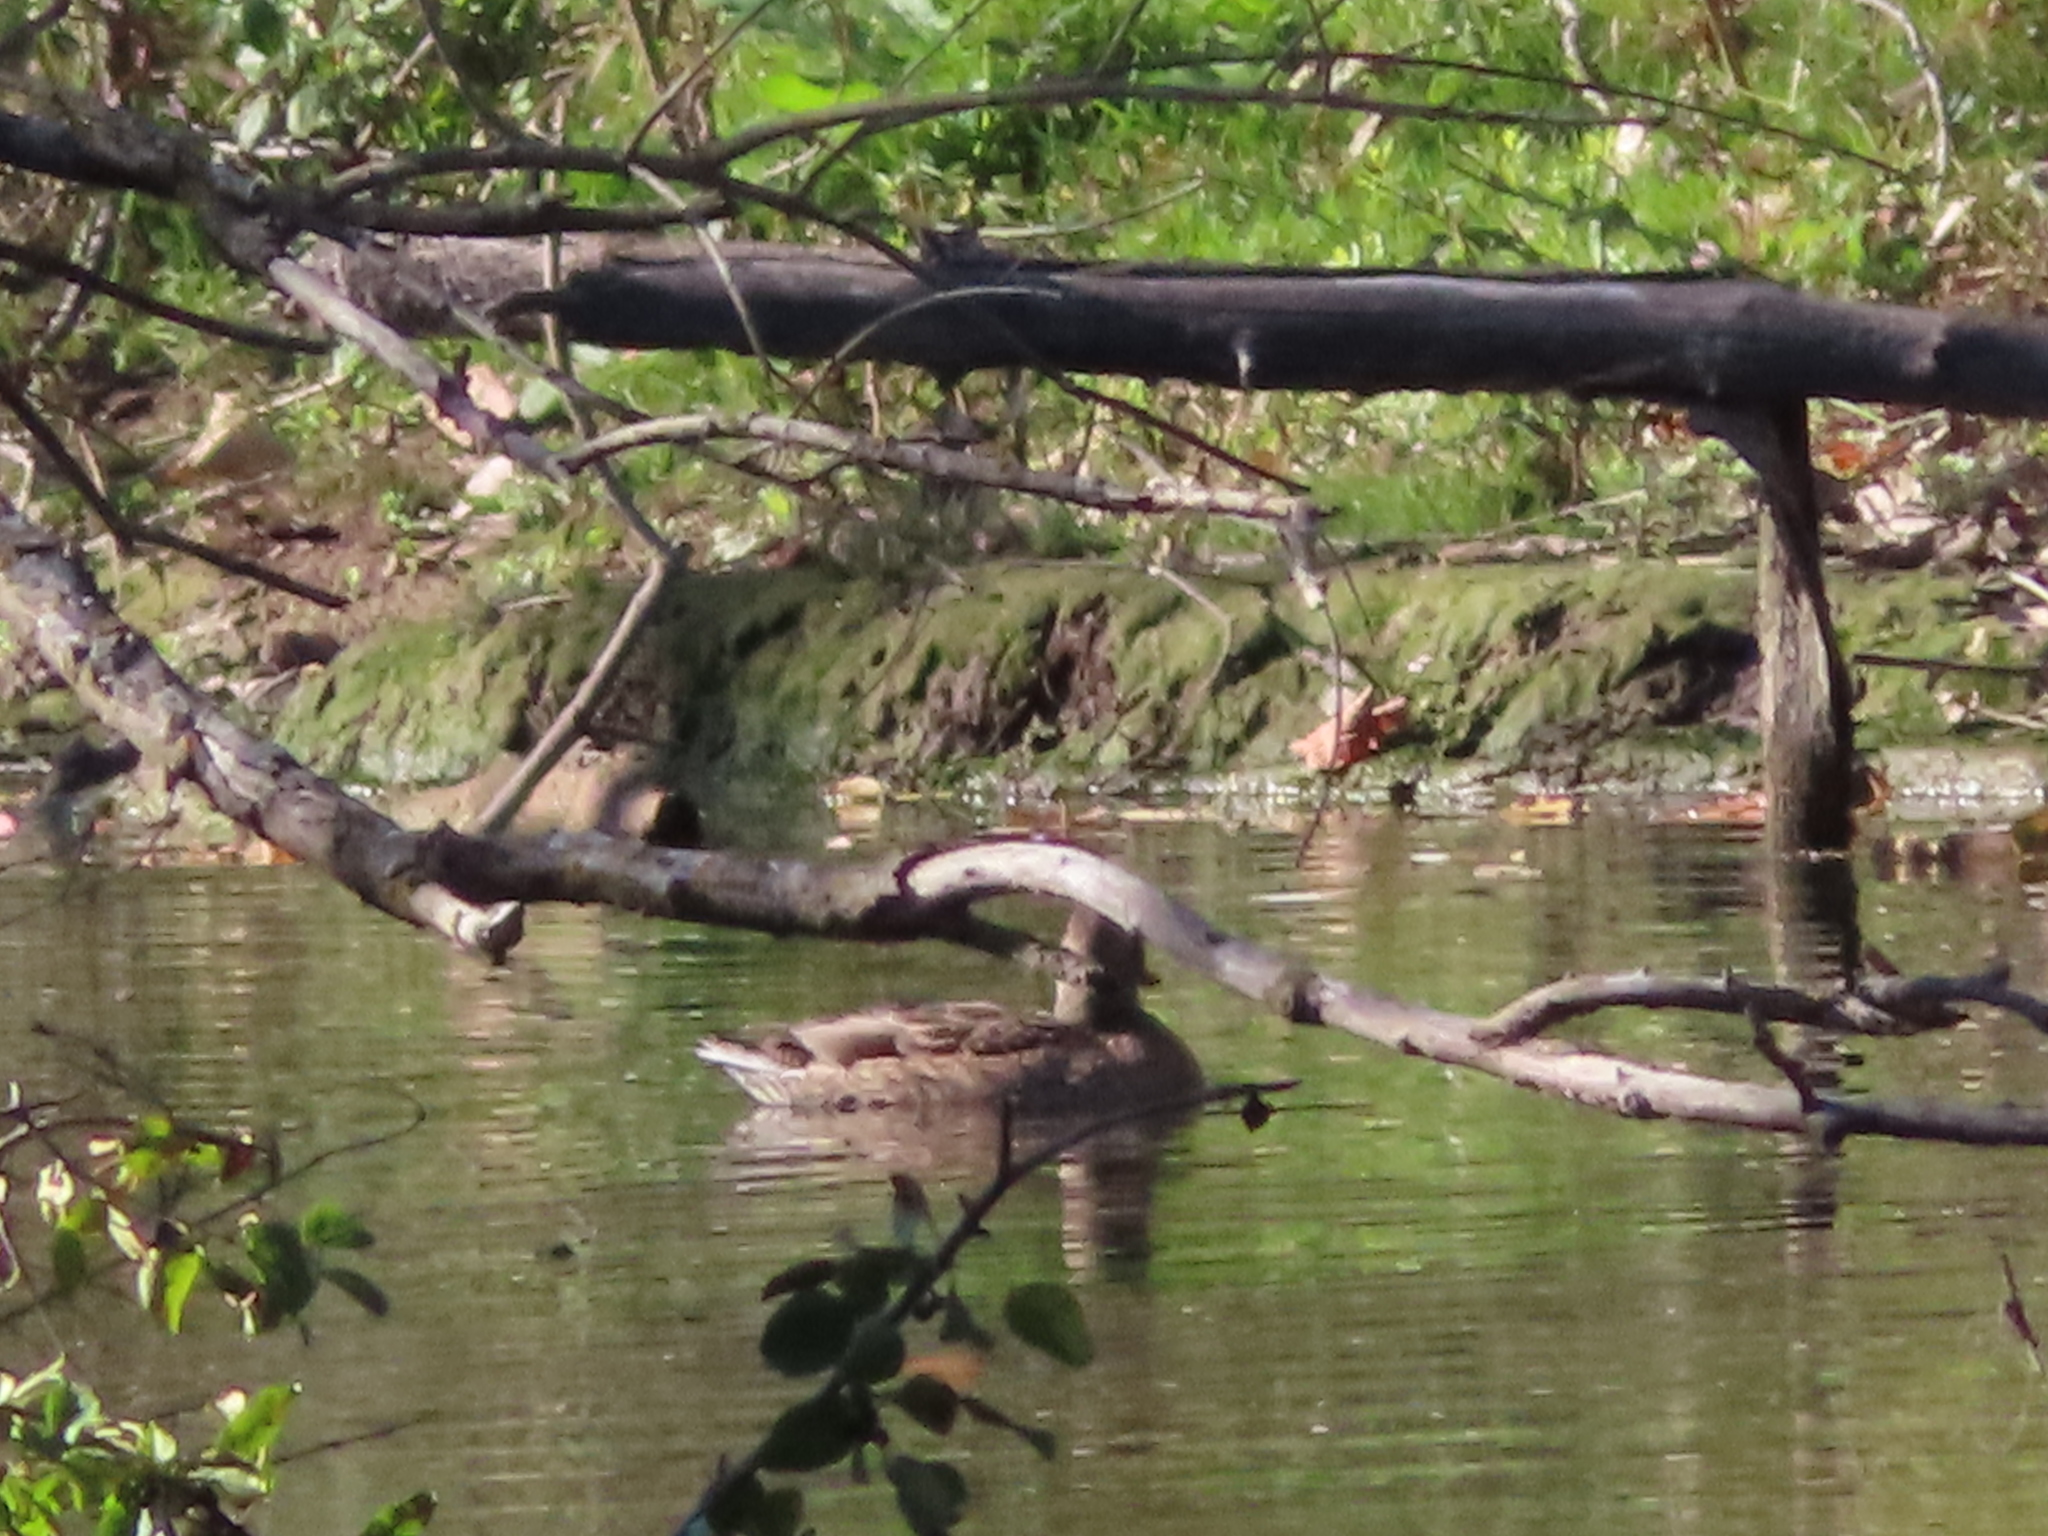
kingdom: Animalia
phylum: Chordata
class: Aves
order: Anseriformes
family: Anatidae
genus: Anas
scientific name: Anas platyrhynchos
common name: Mallard
